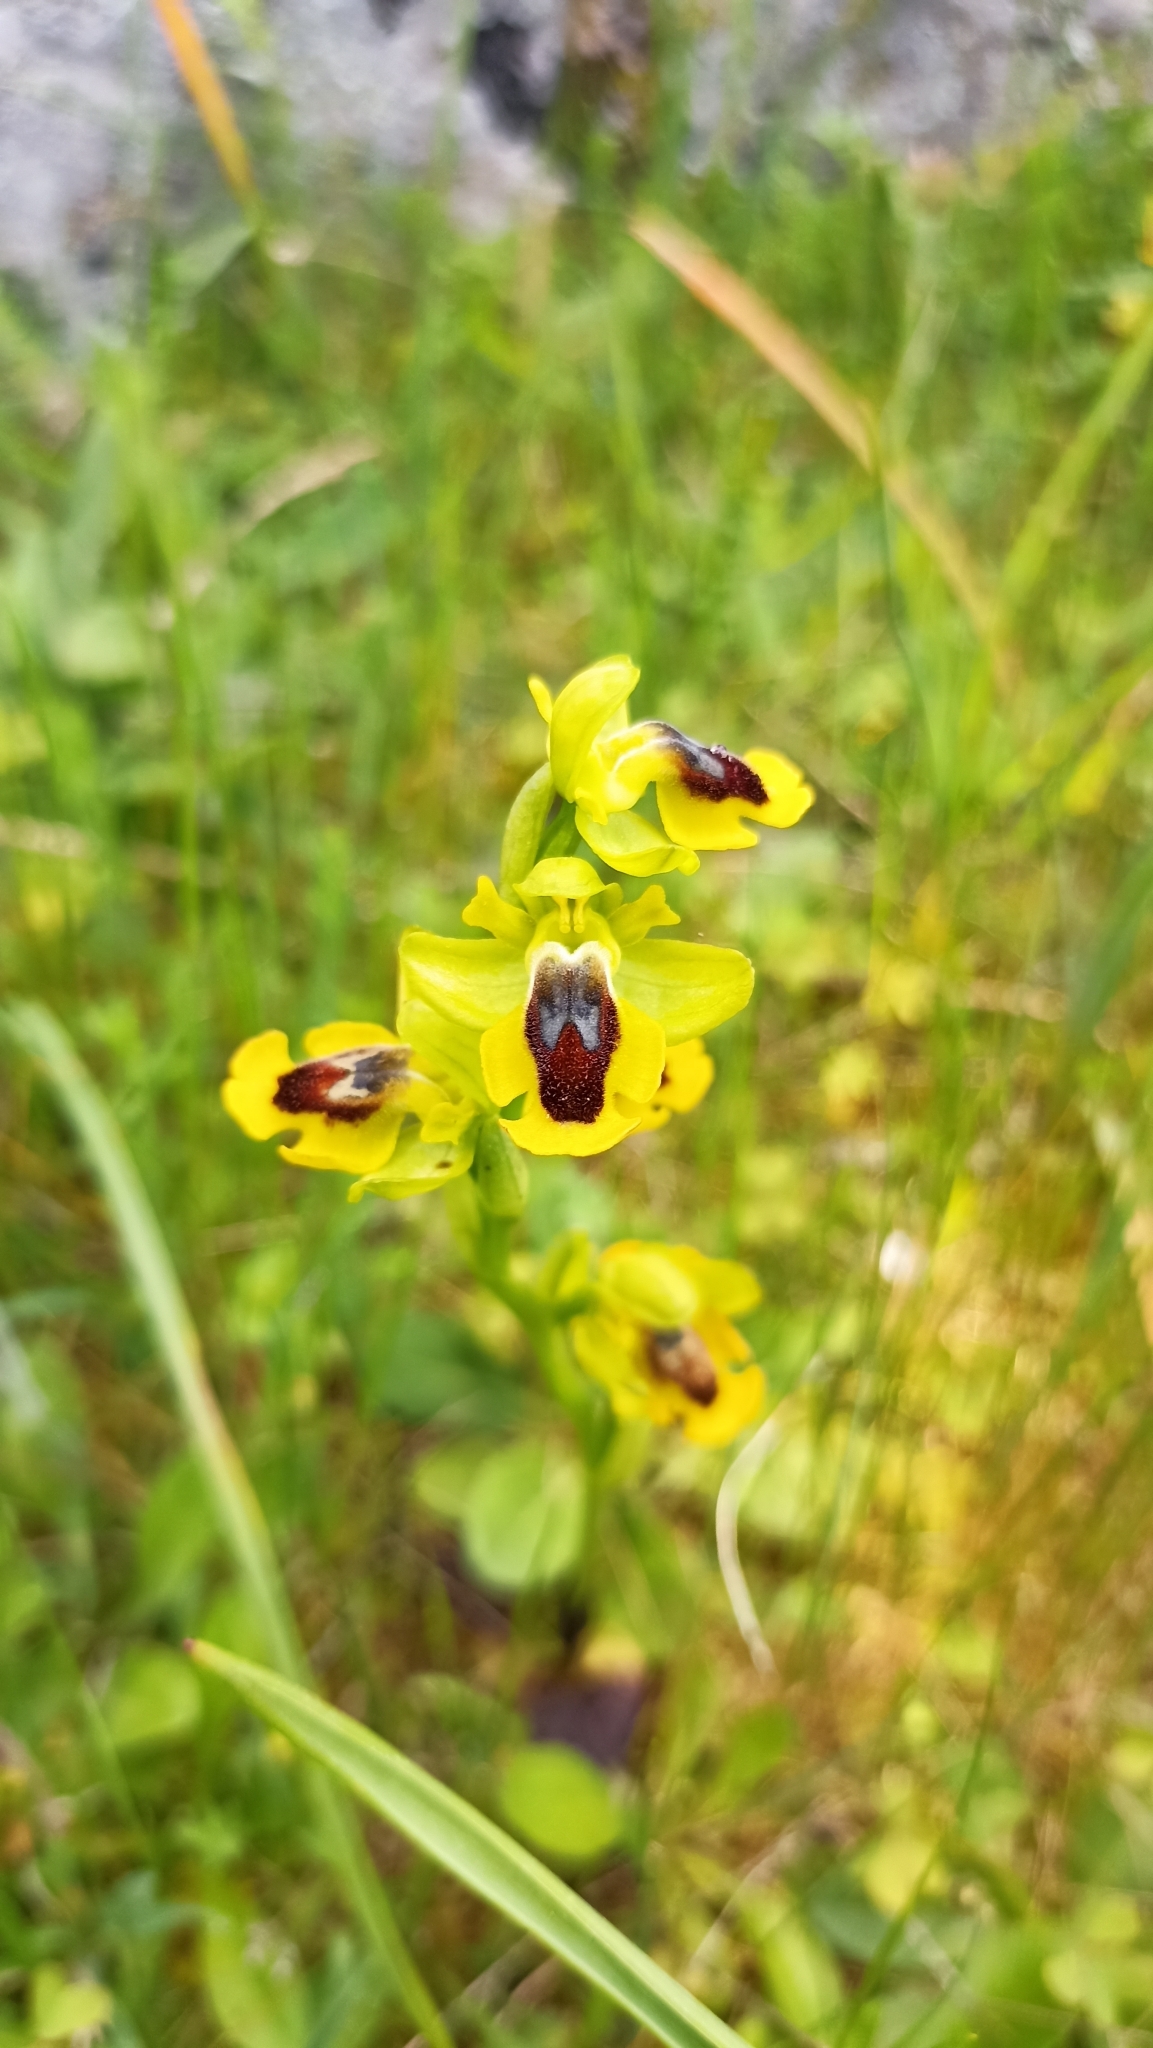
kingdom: Plantae
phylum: Tracheophyta
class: Liliopsida
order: Asparagales
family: Orchidaceae
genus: Ophrys
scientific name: Ophrys lutea
